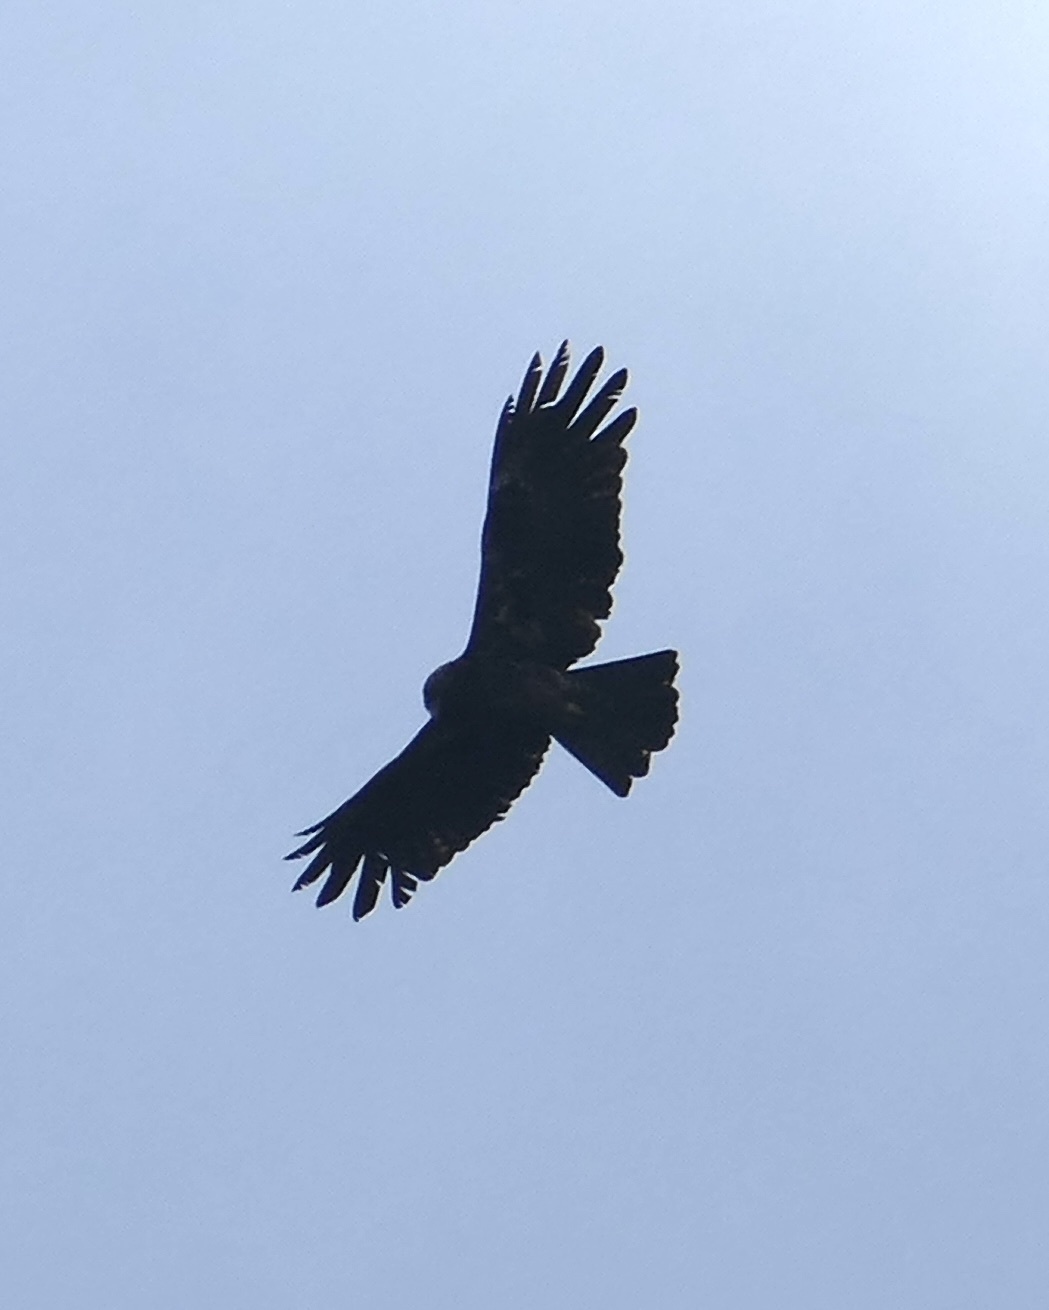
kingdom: Animalia
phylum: Chordata
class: Aves
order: Accipitriformes
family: Accipitridae
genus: Ictinaetus
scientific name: Ictinaetus malayensis
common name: Black eagle
